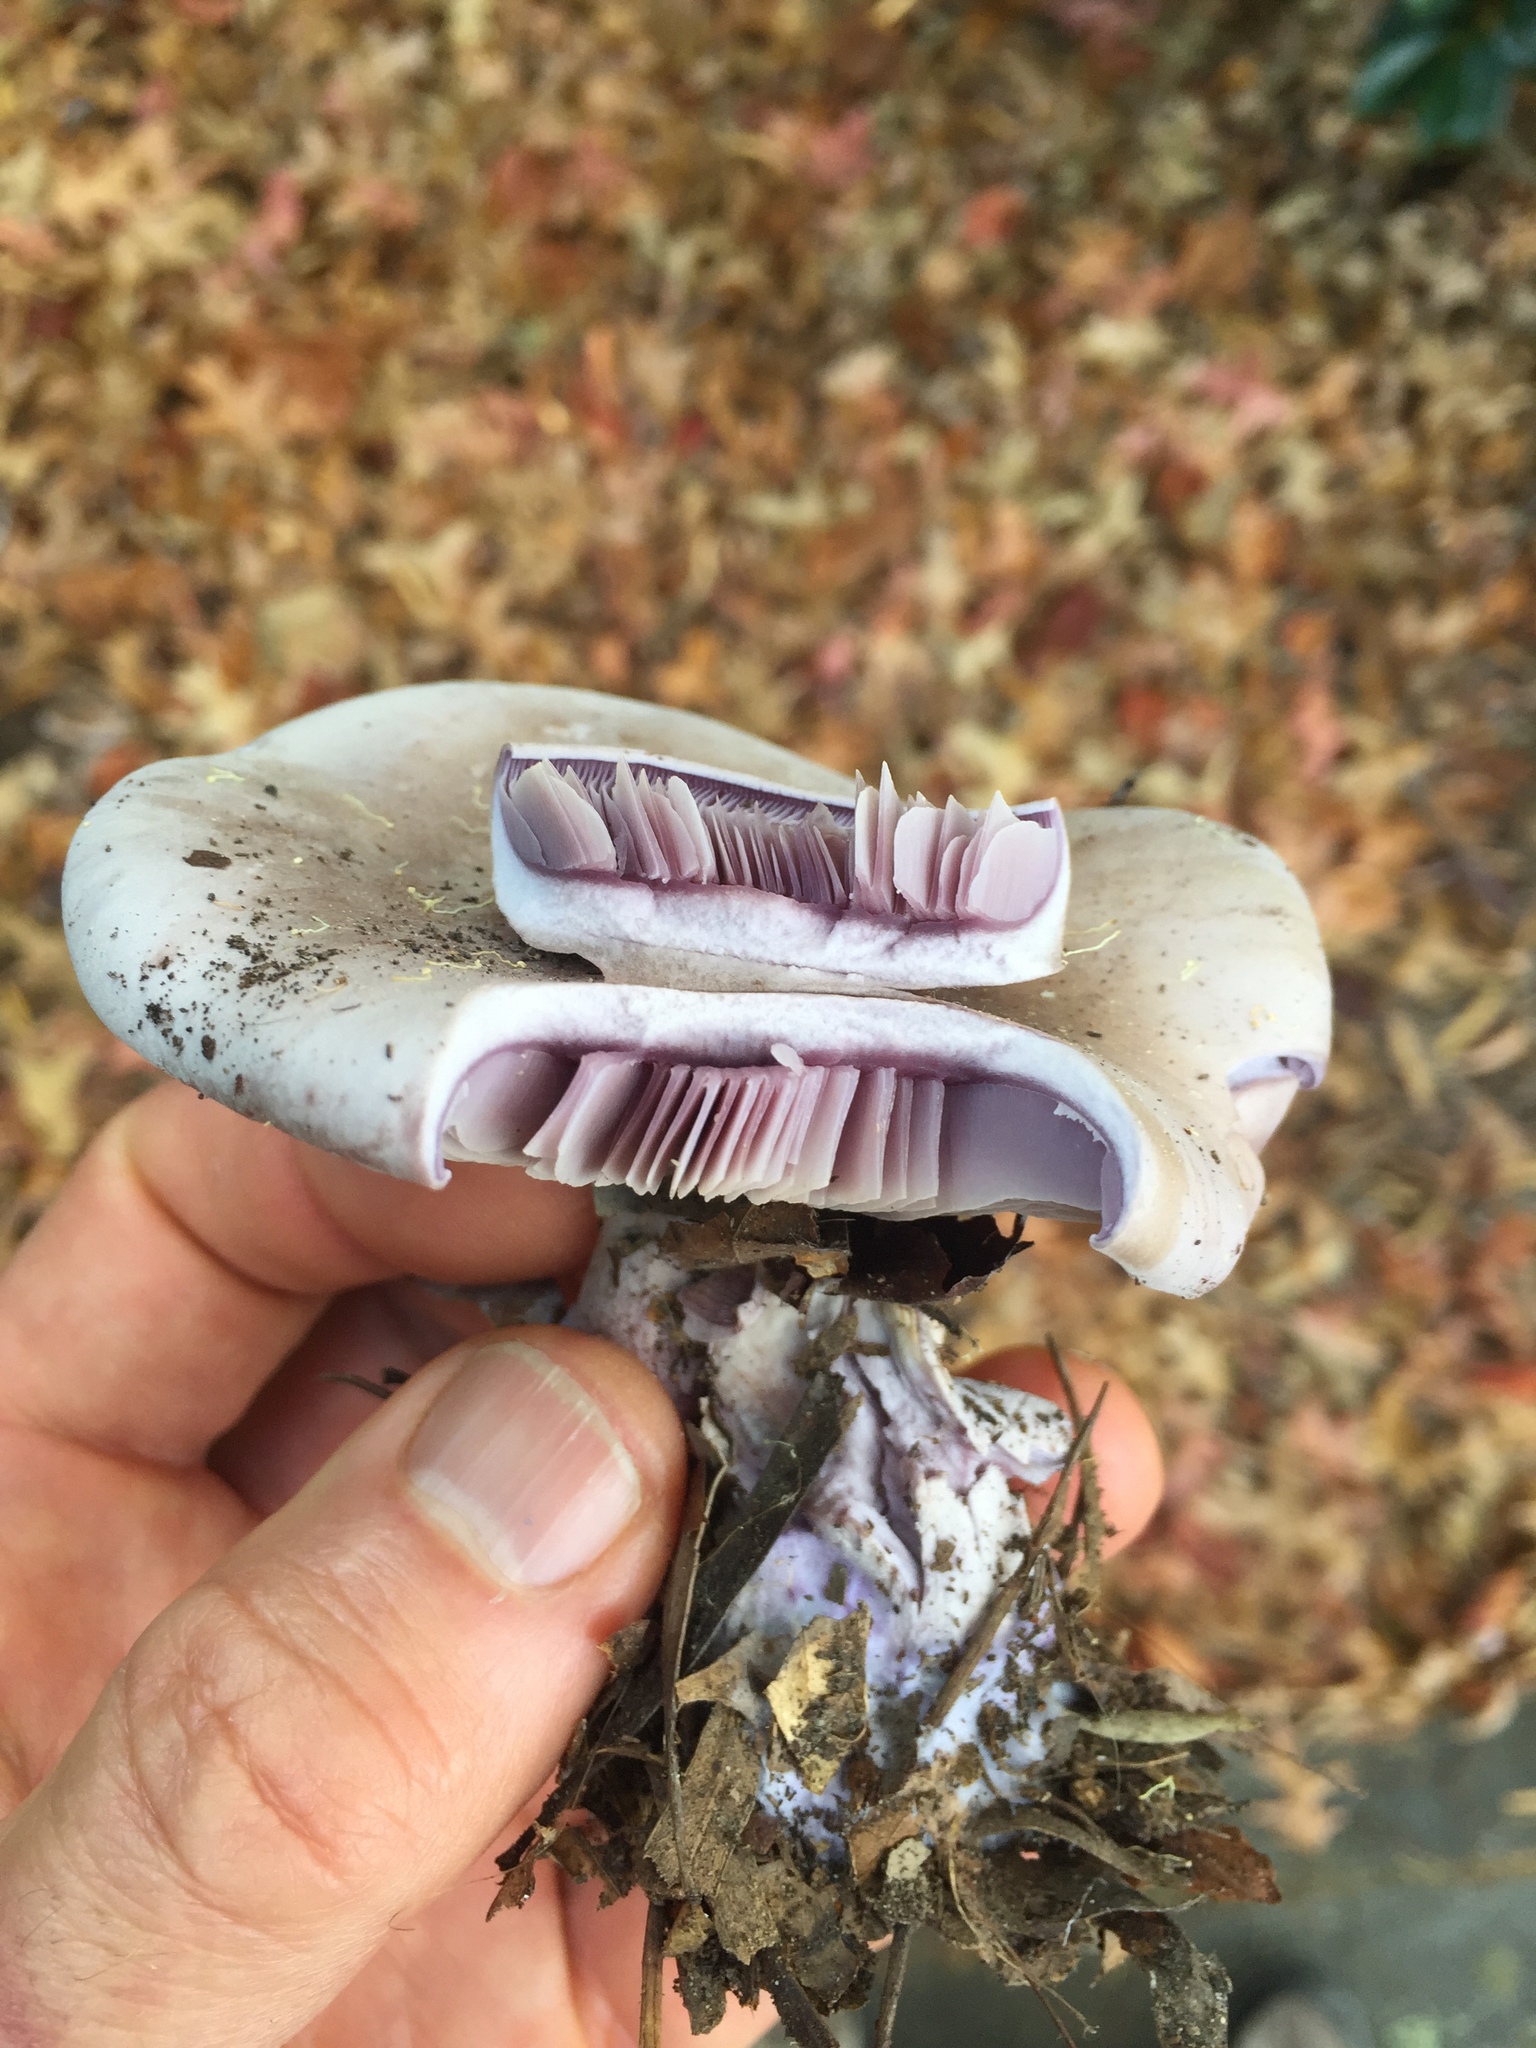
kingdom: Fungi
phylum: Basidiomycota
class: Agaricomycetes
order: Agaricales
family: Tricholomataceae
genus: Collybia
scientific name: Collybia
